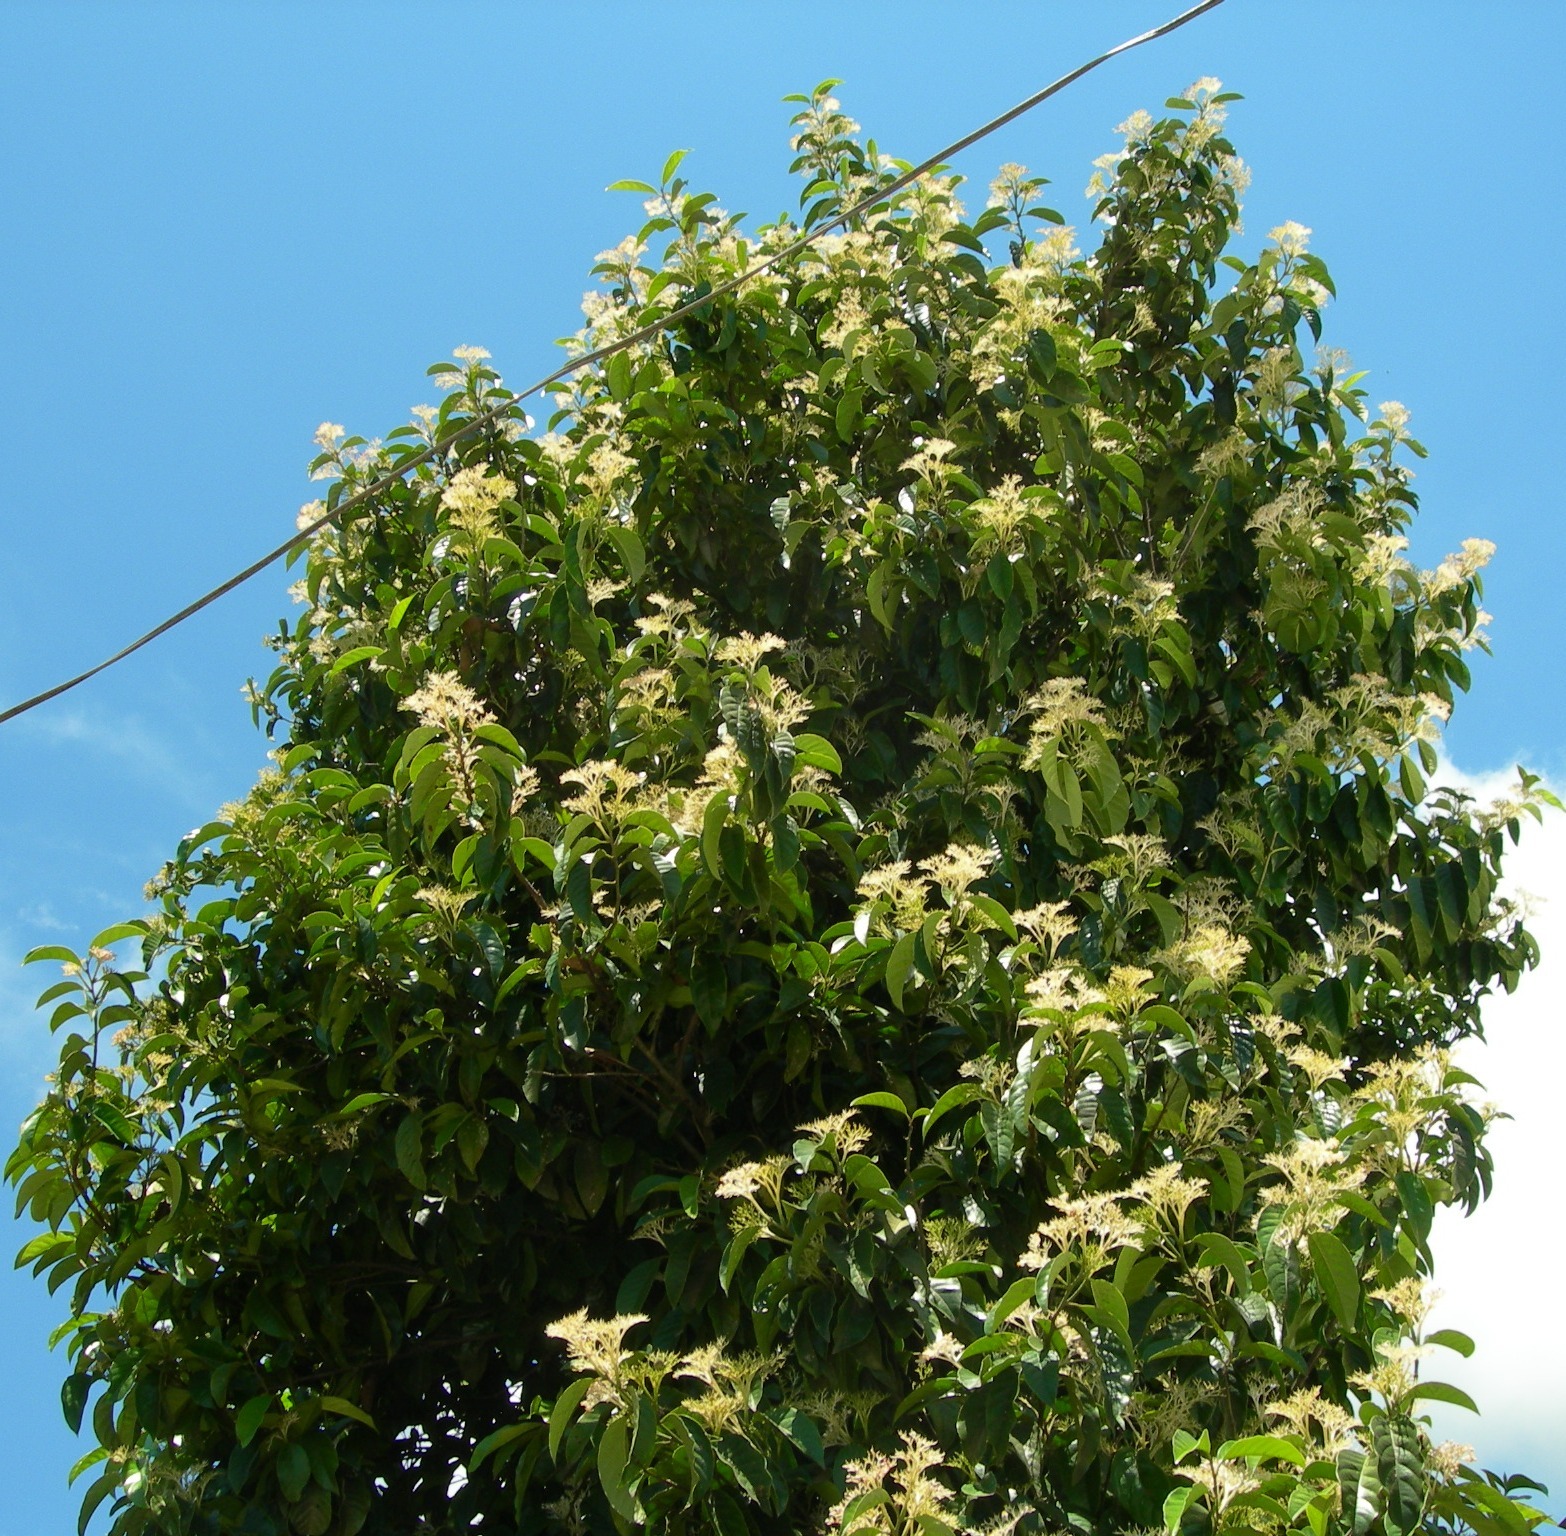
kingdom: Plantae
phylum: Tracheophyta
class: Magnoliopsida
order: Metteniusales
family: Metteniusaceae
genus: Oecopetalum
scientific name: Oecopetalum mexicanum
